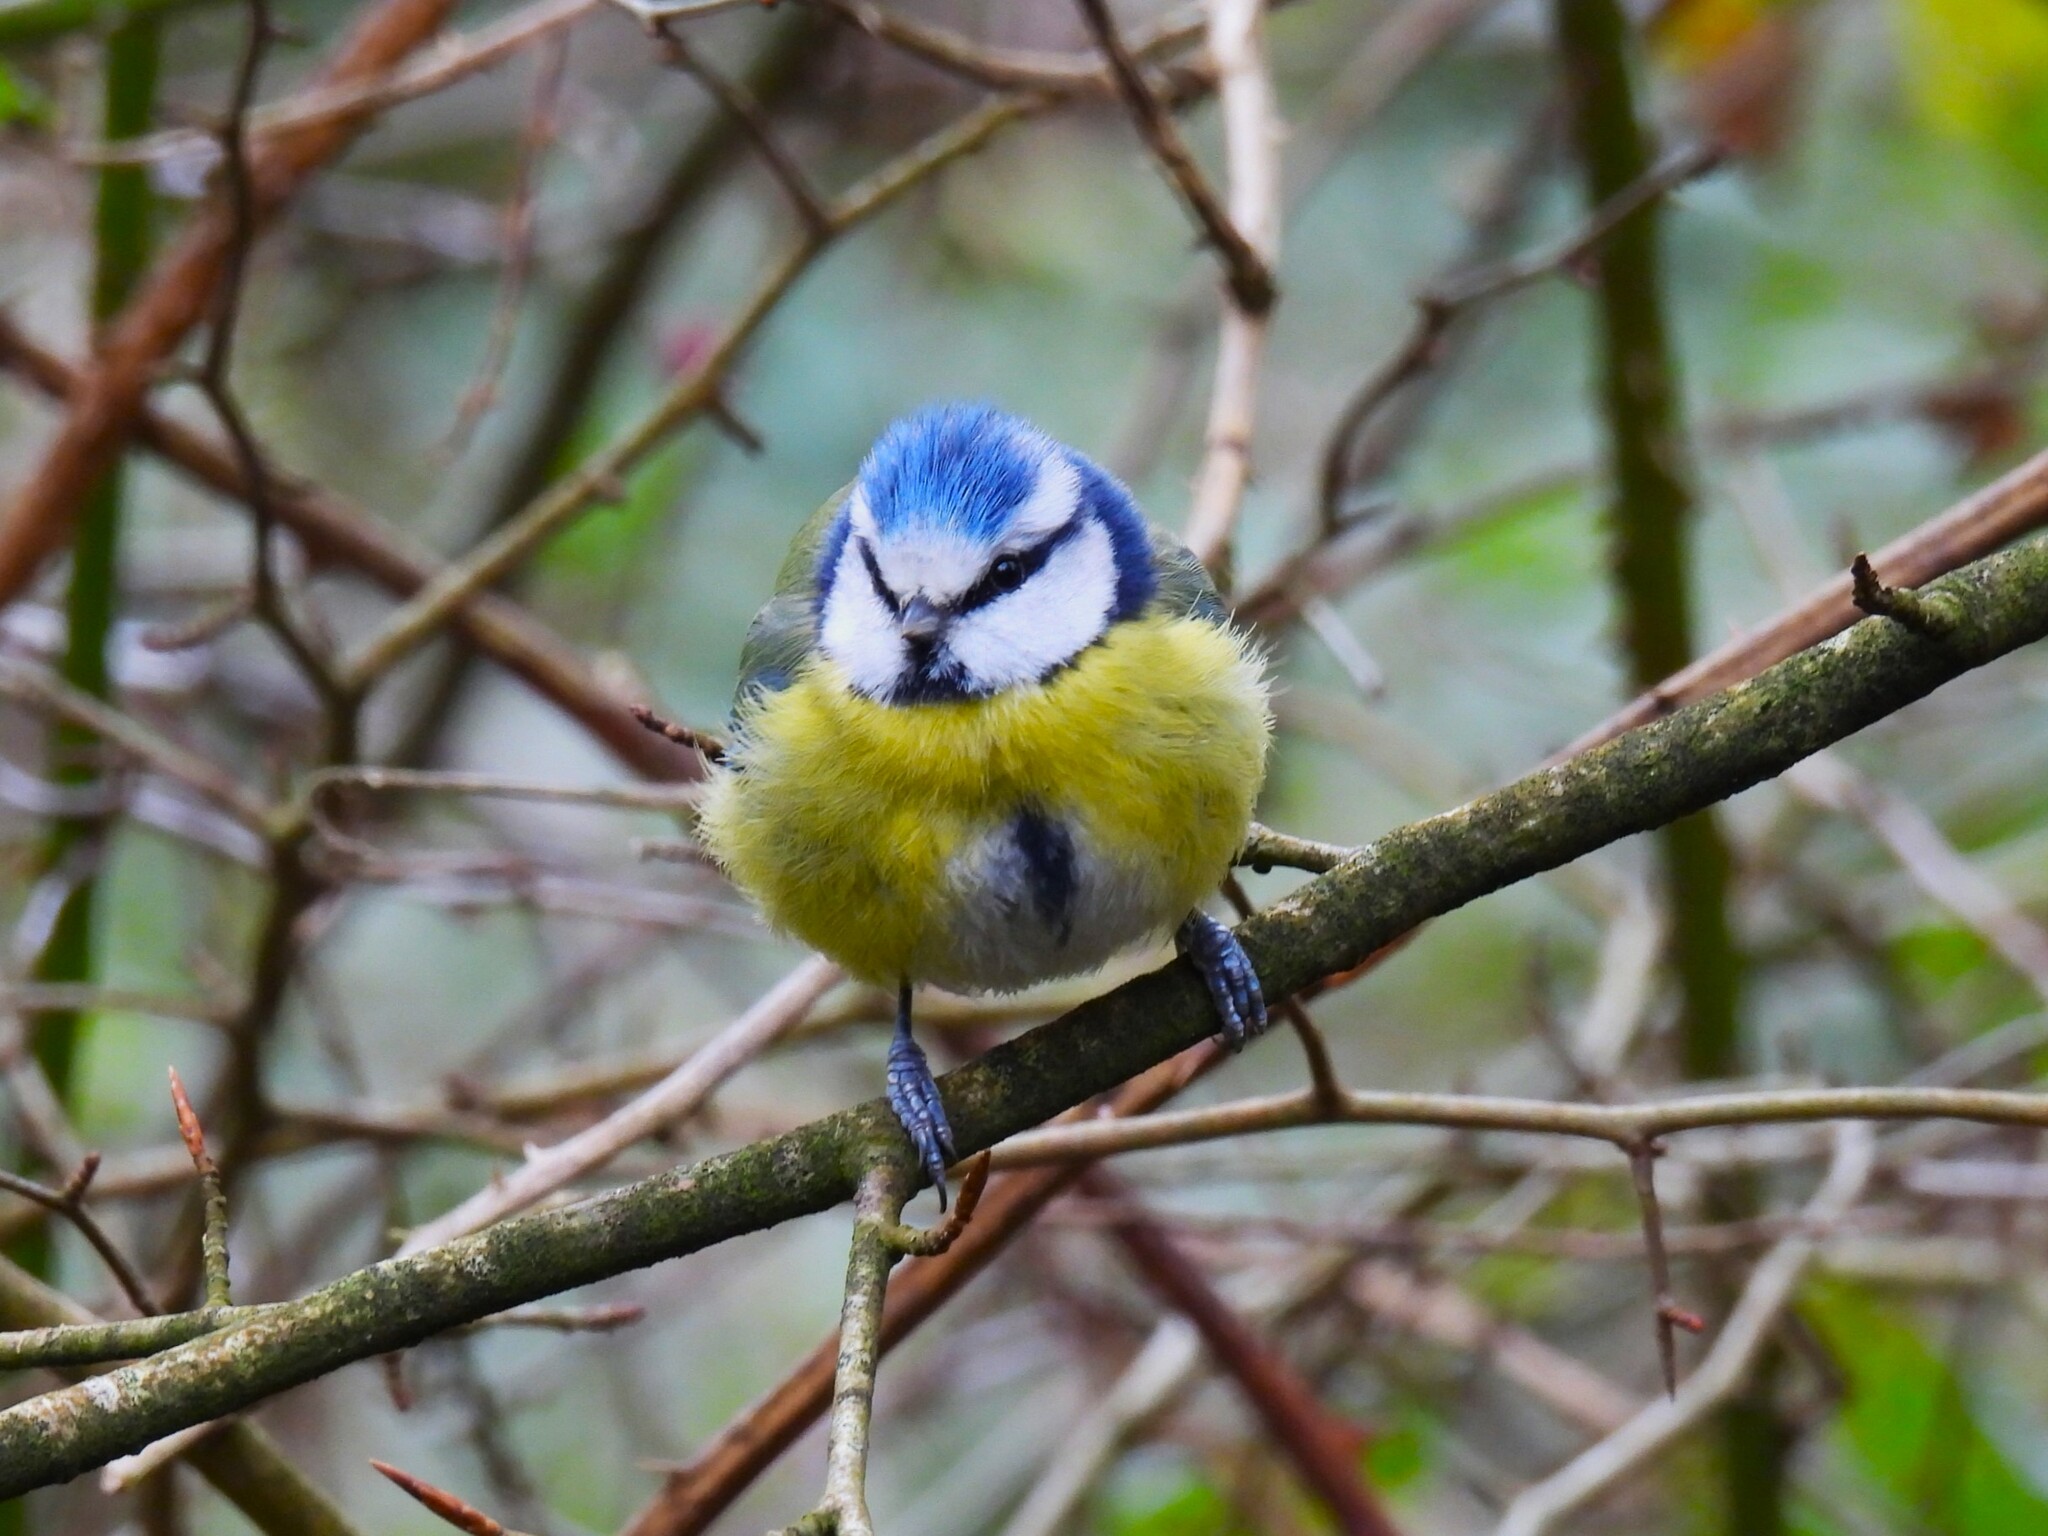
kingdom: Animalia
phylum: Chordata
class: Aves
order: Passeriformes
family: Paridae
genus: Cyanistes
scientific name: Cyanistes caeruleus
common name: Eurasian blue tit
